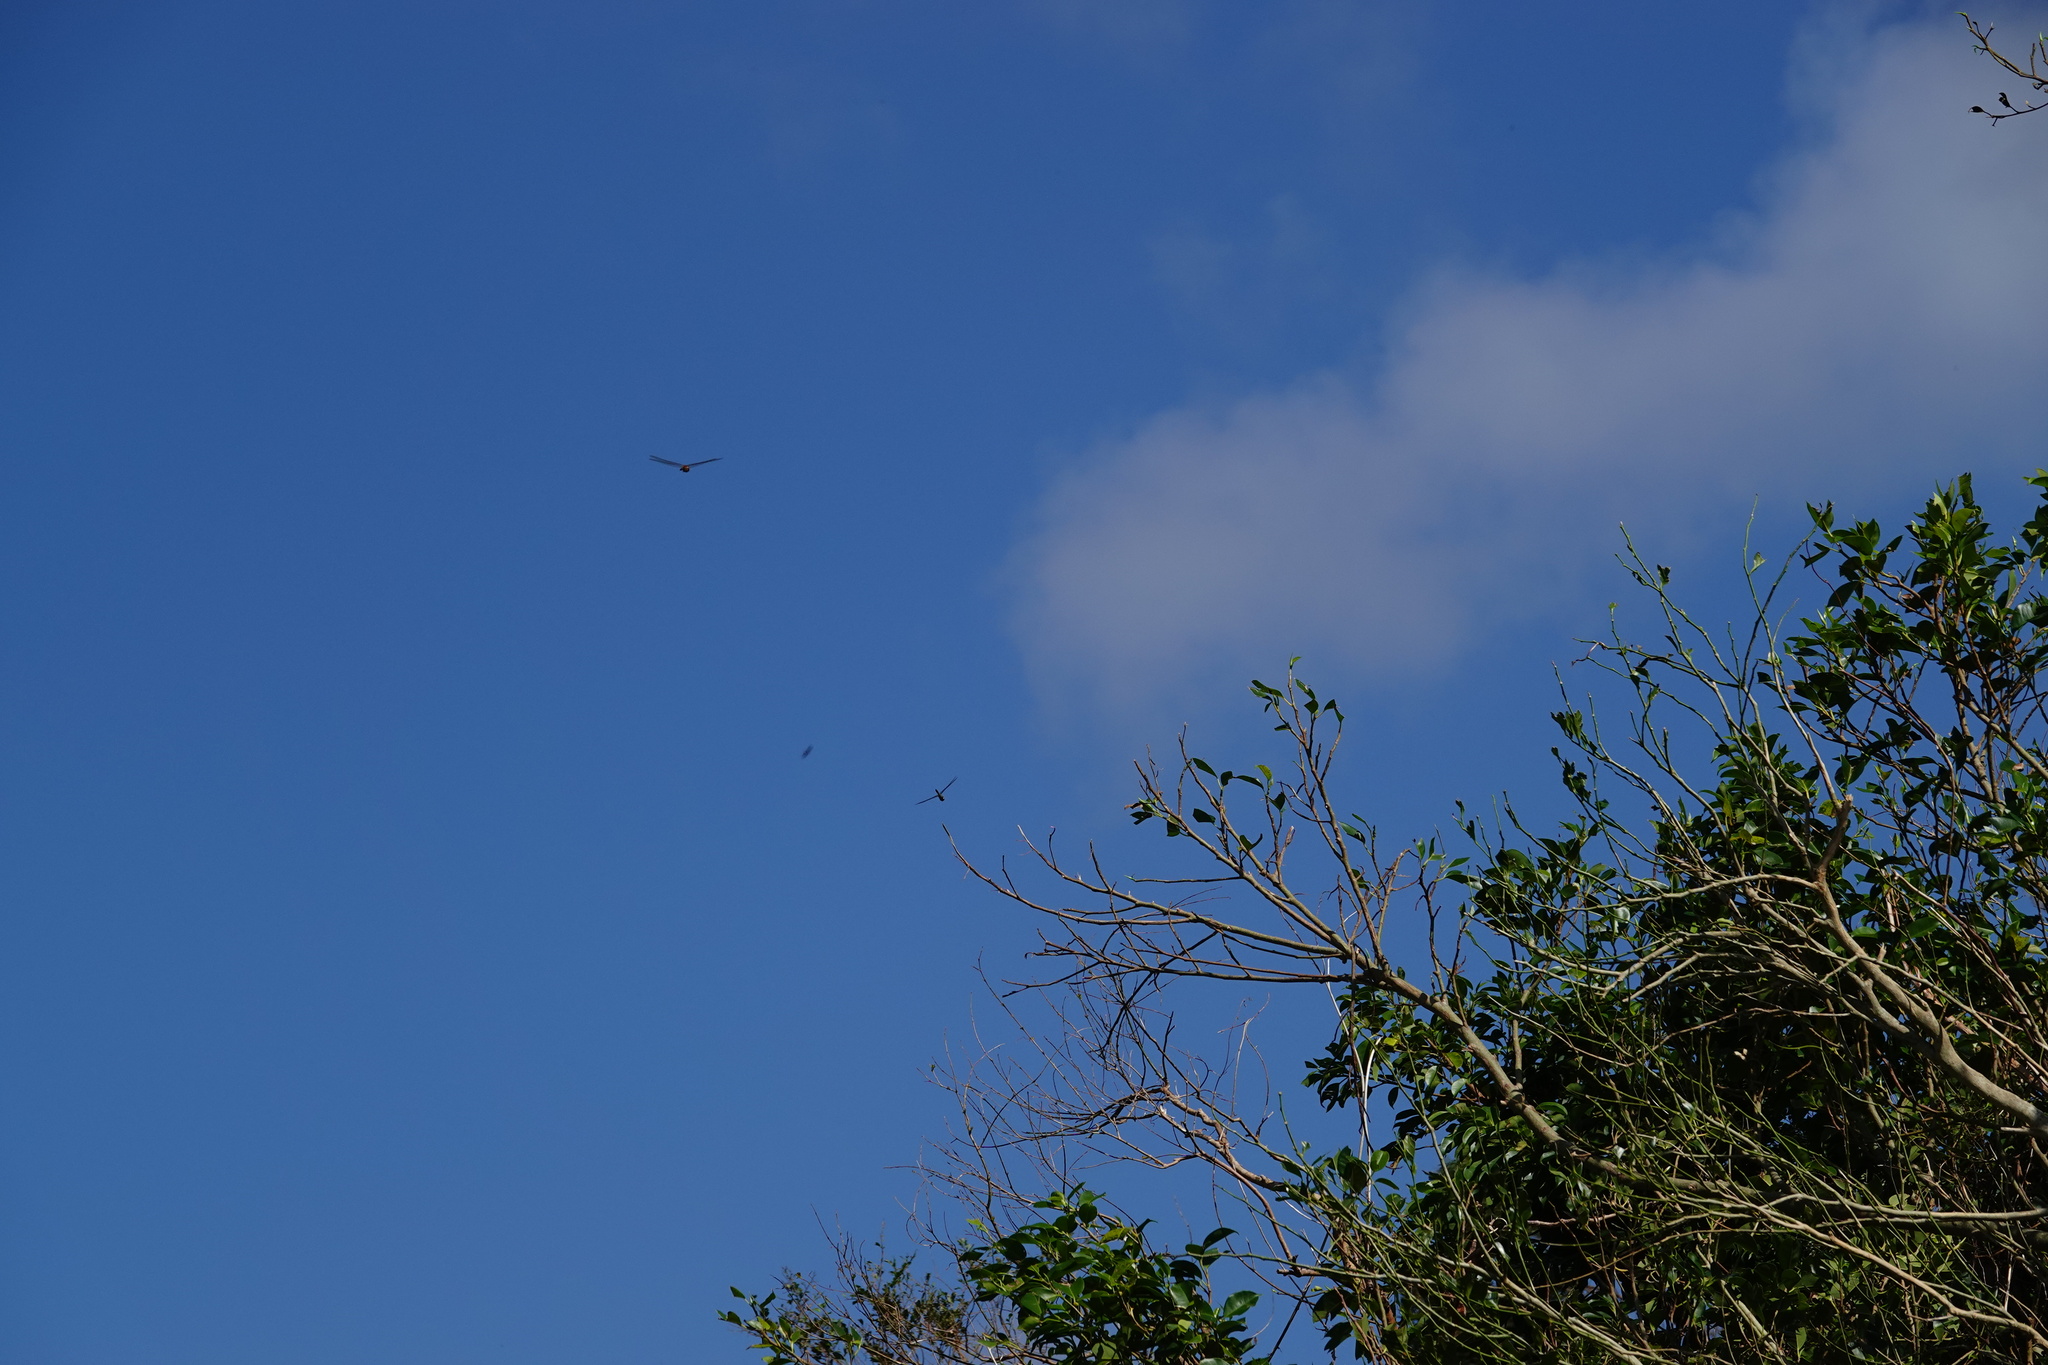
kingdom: Animalia
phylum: Arthropoda
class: Insecta
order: Odonata
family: Libellulidae
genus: Pantala
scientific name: Pantala flavescens
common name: Wandering glider
